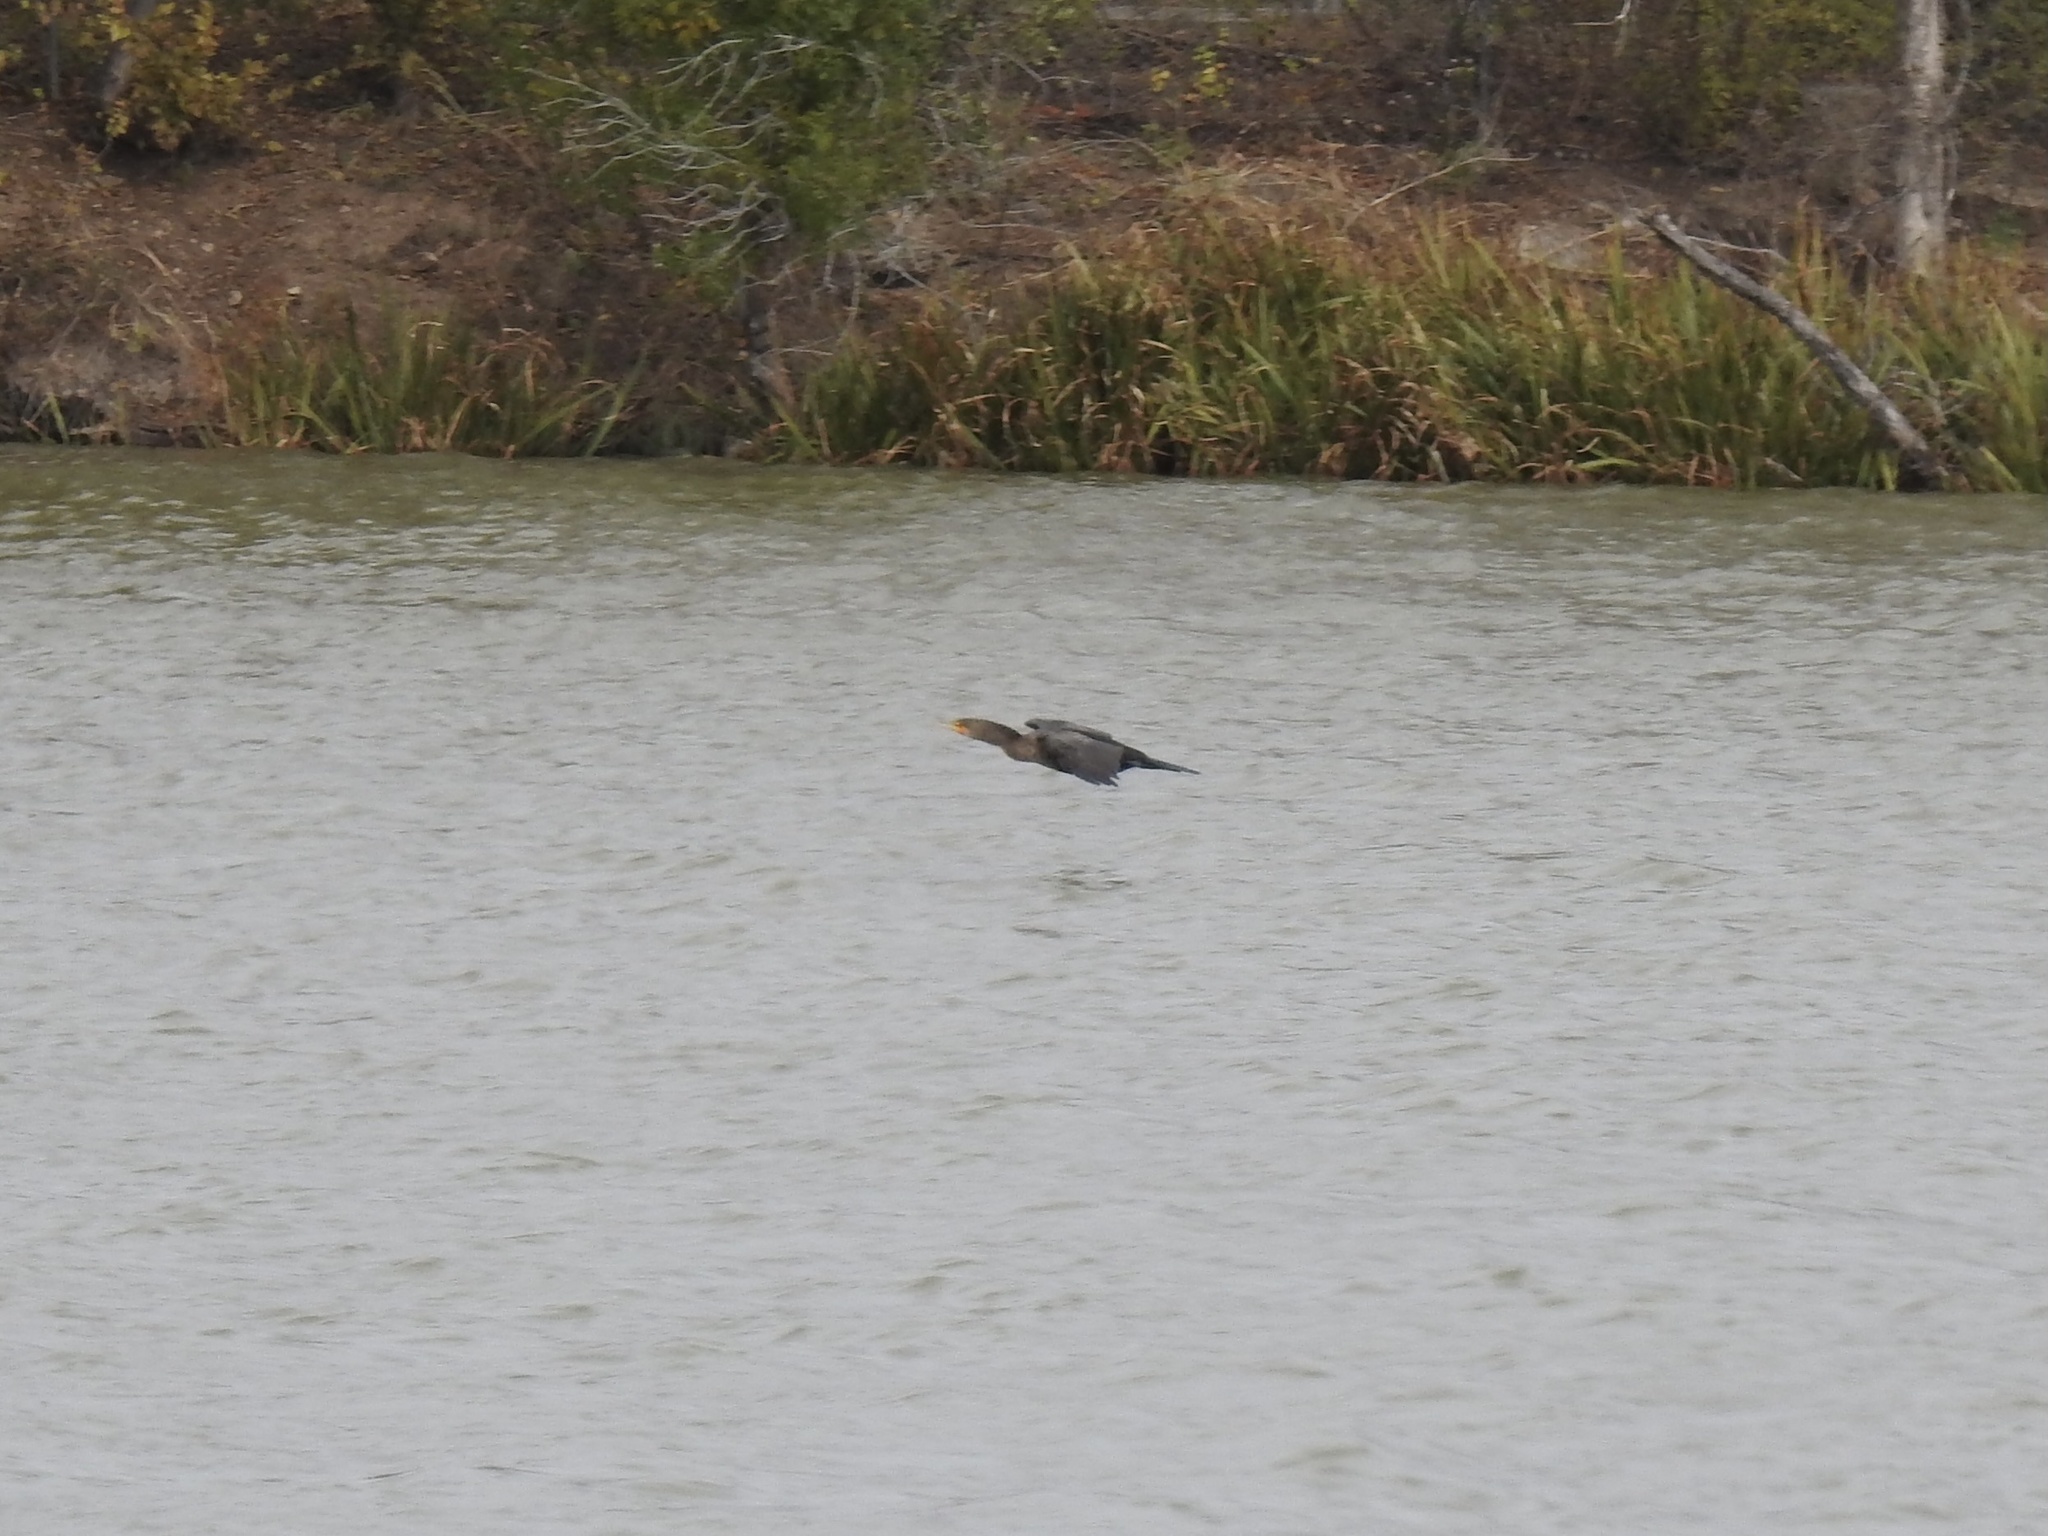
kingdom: Animalia
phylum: Chordata
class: Aves
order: Suliformes
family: Phalacrocoracidae
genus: Phalacrocorax
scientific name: Phalacrocorax auritus
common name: Double-crested cormorant
